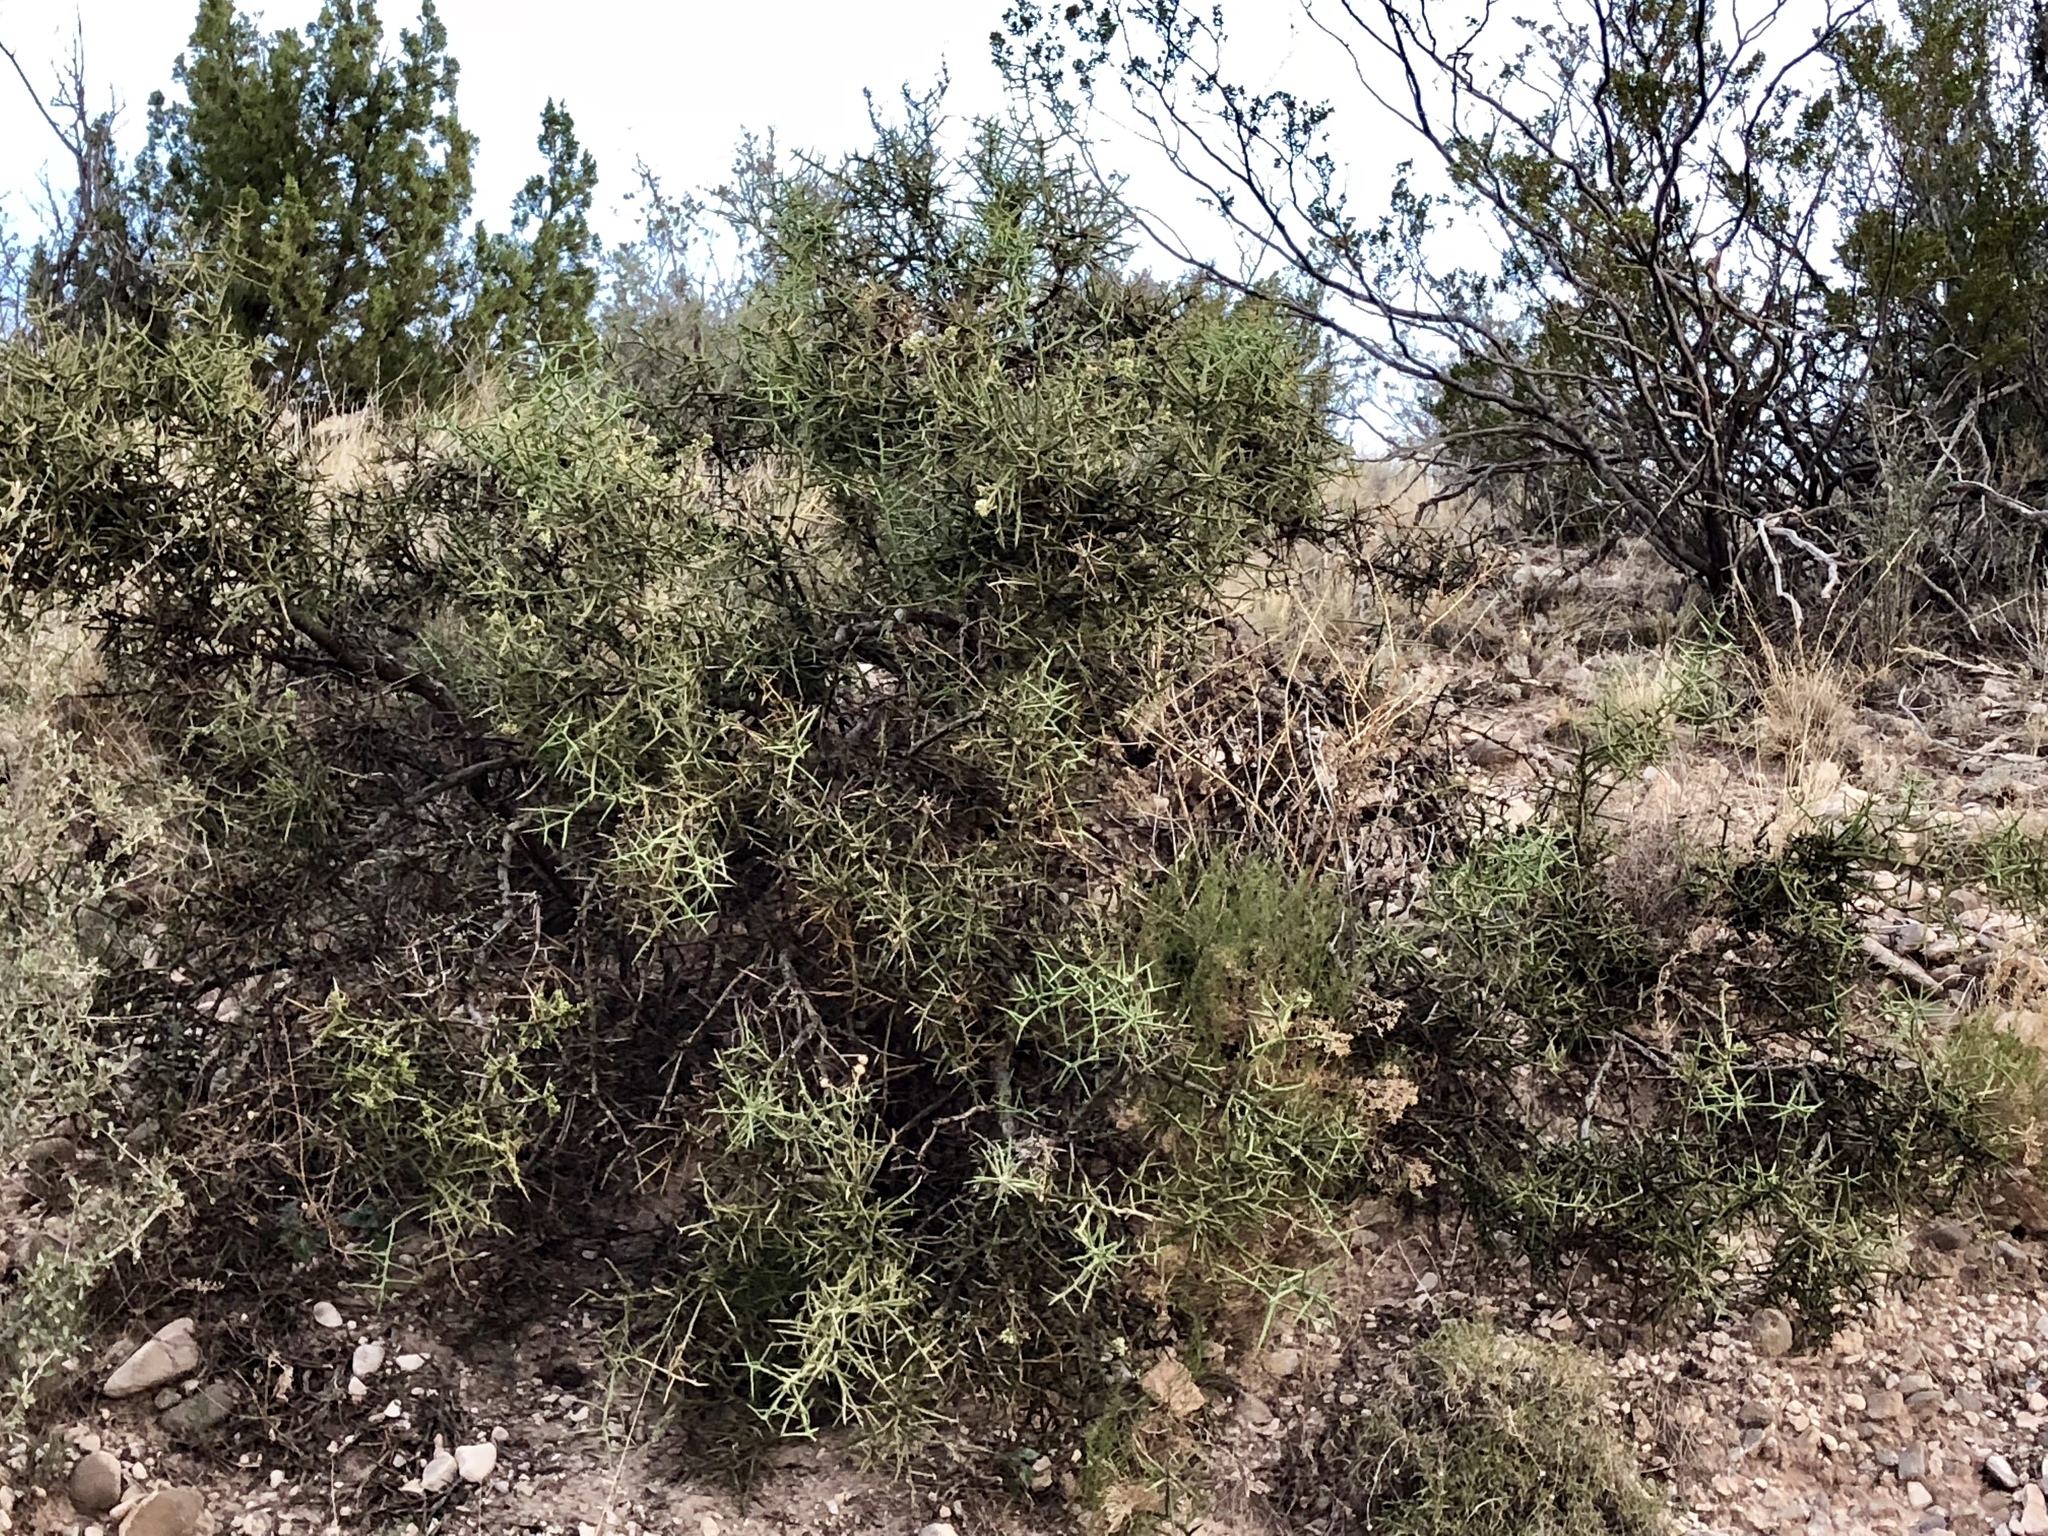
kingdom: Plantae
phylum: Tracheophyta
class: Magnoliopsida
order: Brassicales
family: Koeberliniaceae
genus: Koeberlinia
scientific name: Koeberlinia spinosa
